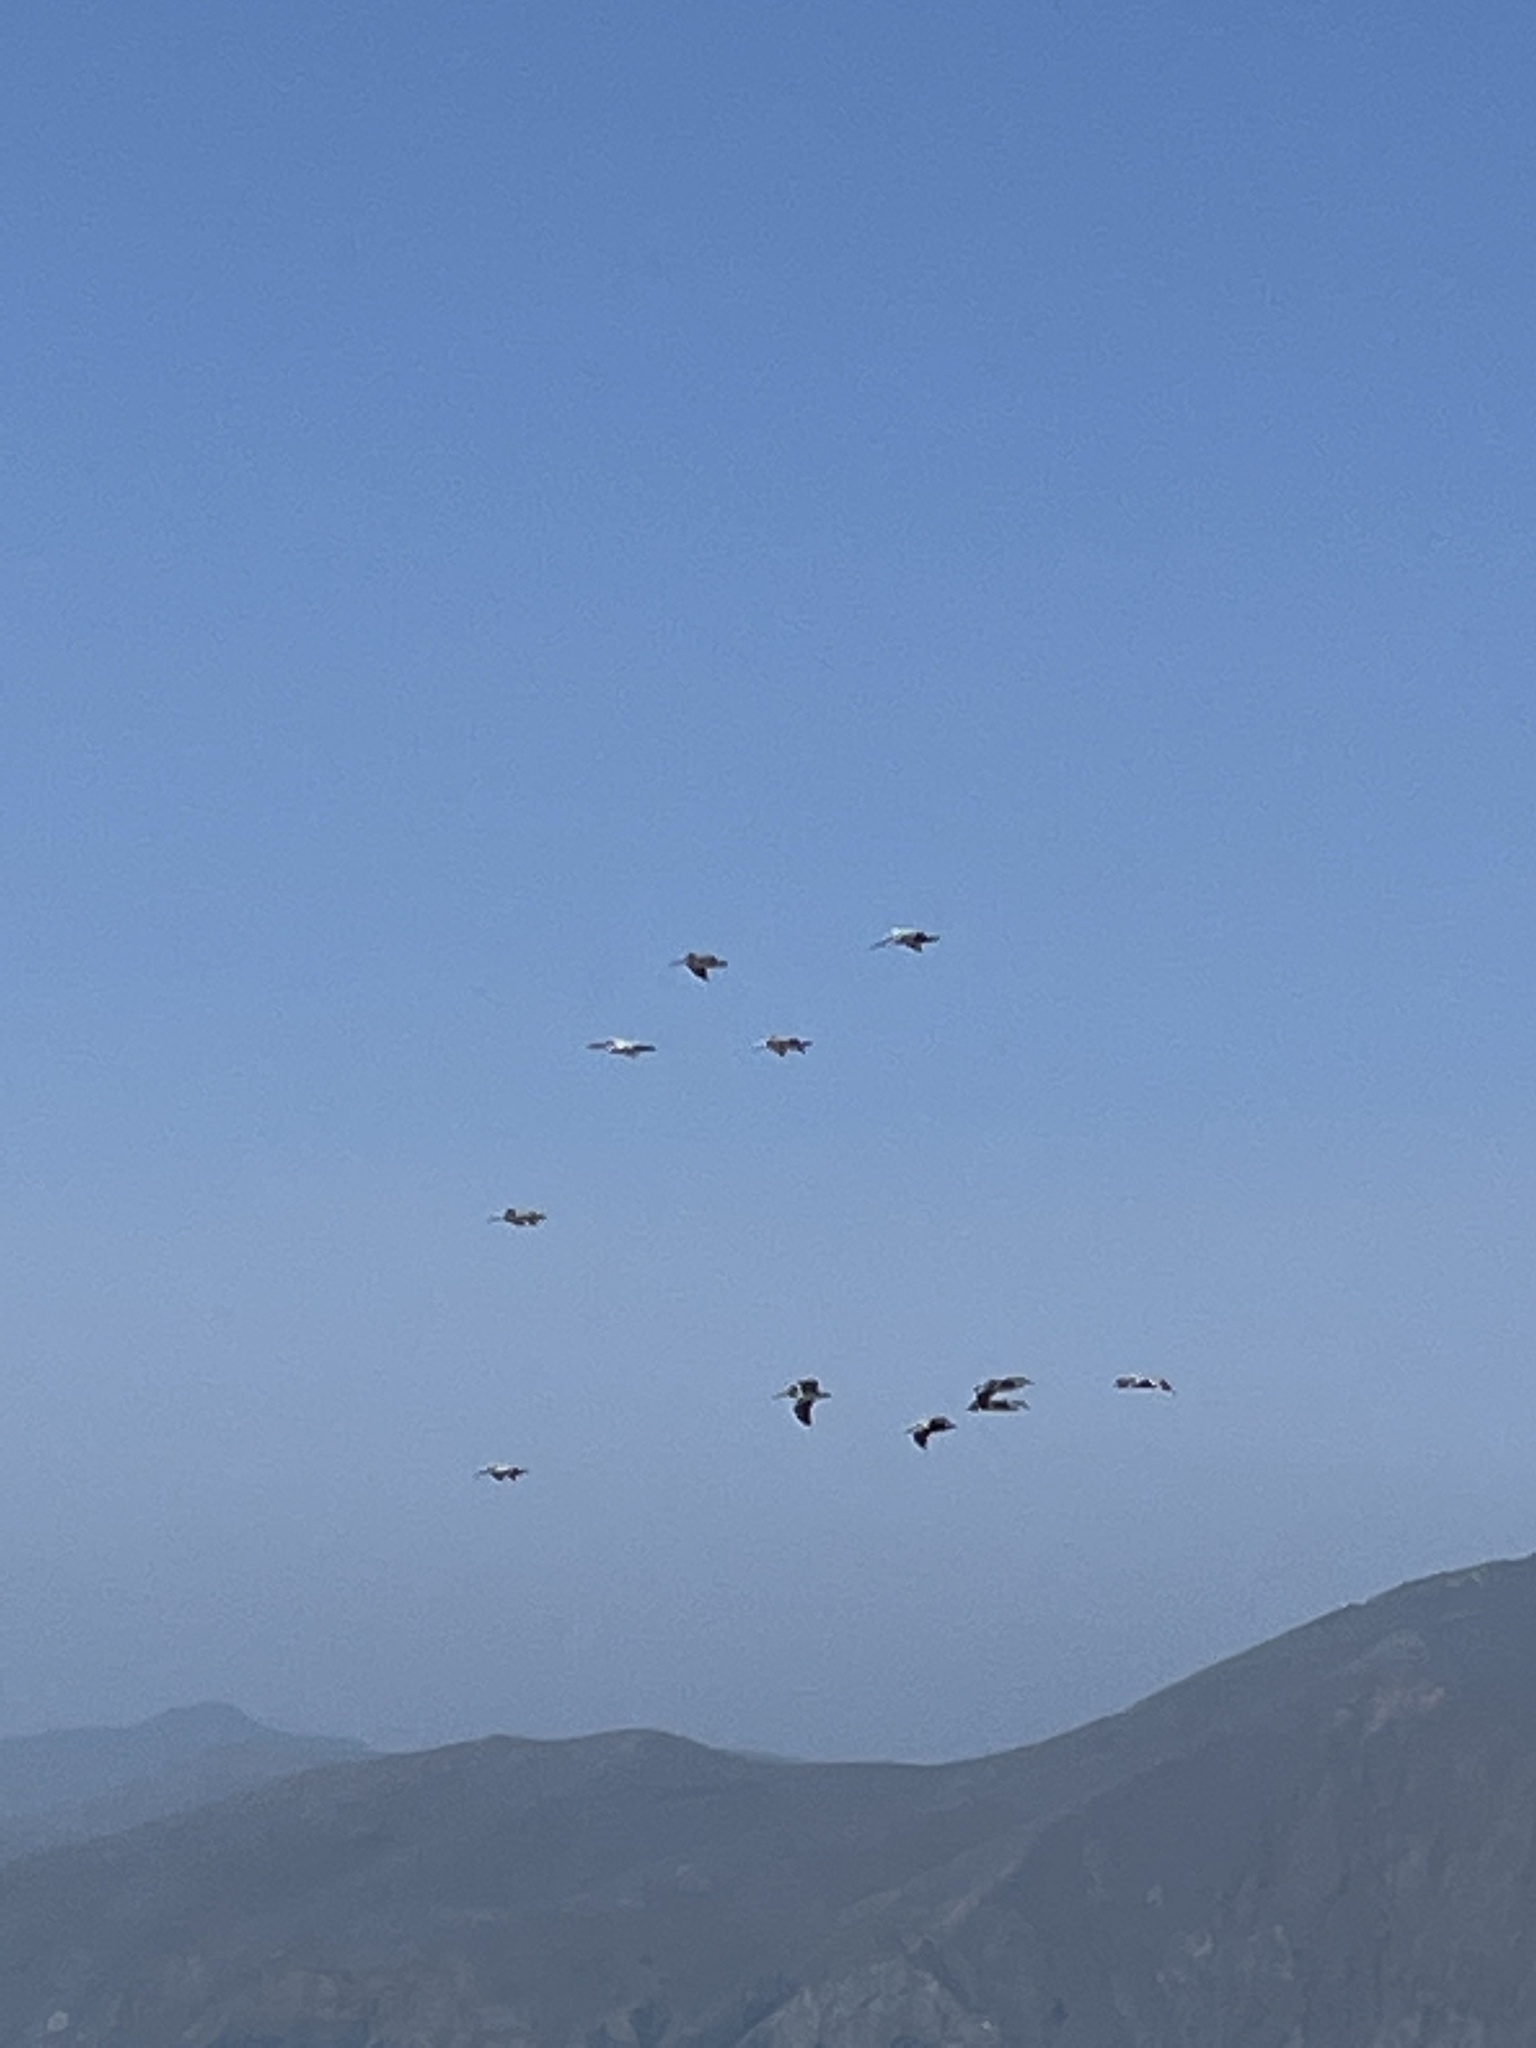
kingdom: Animalia
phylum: Chordata
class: Aves
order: Pelecaniformes
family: Pelecanidae
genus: Pelecanus
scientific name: Pelecanus occidentalis
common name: Brown pelican
